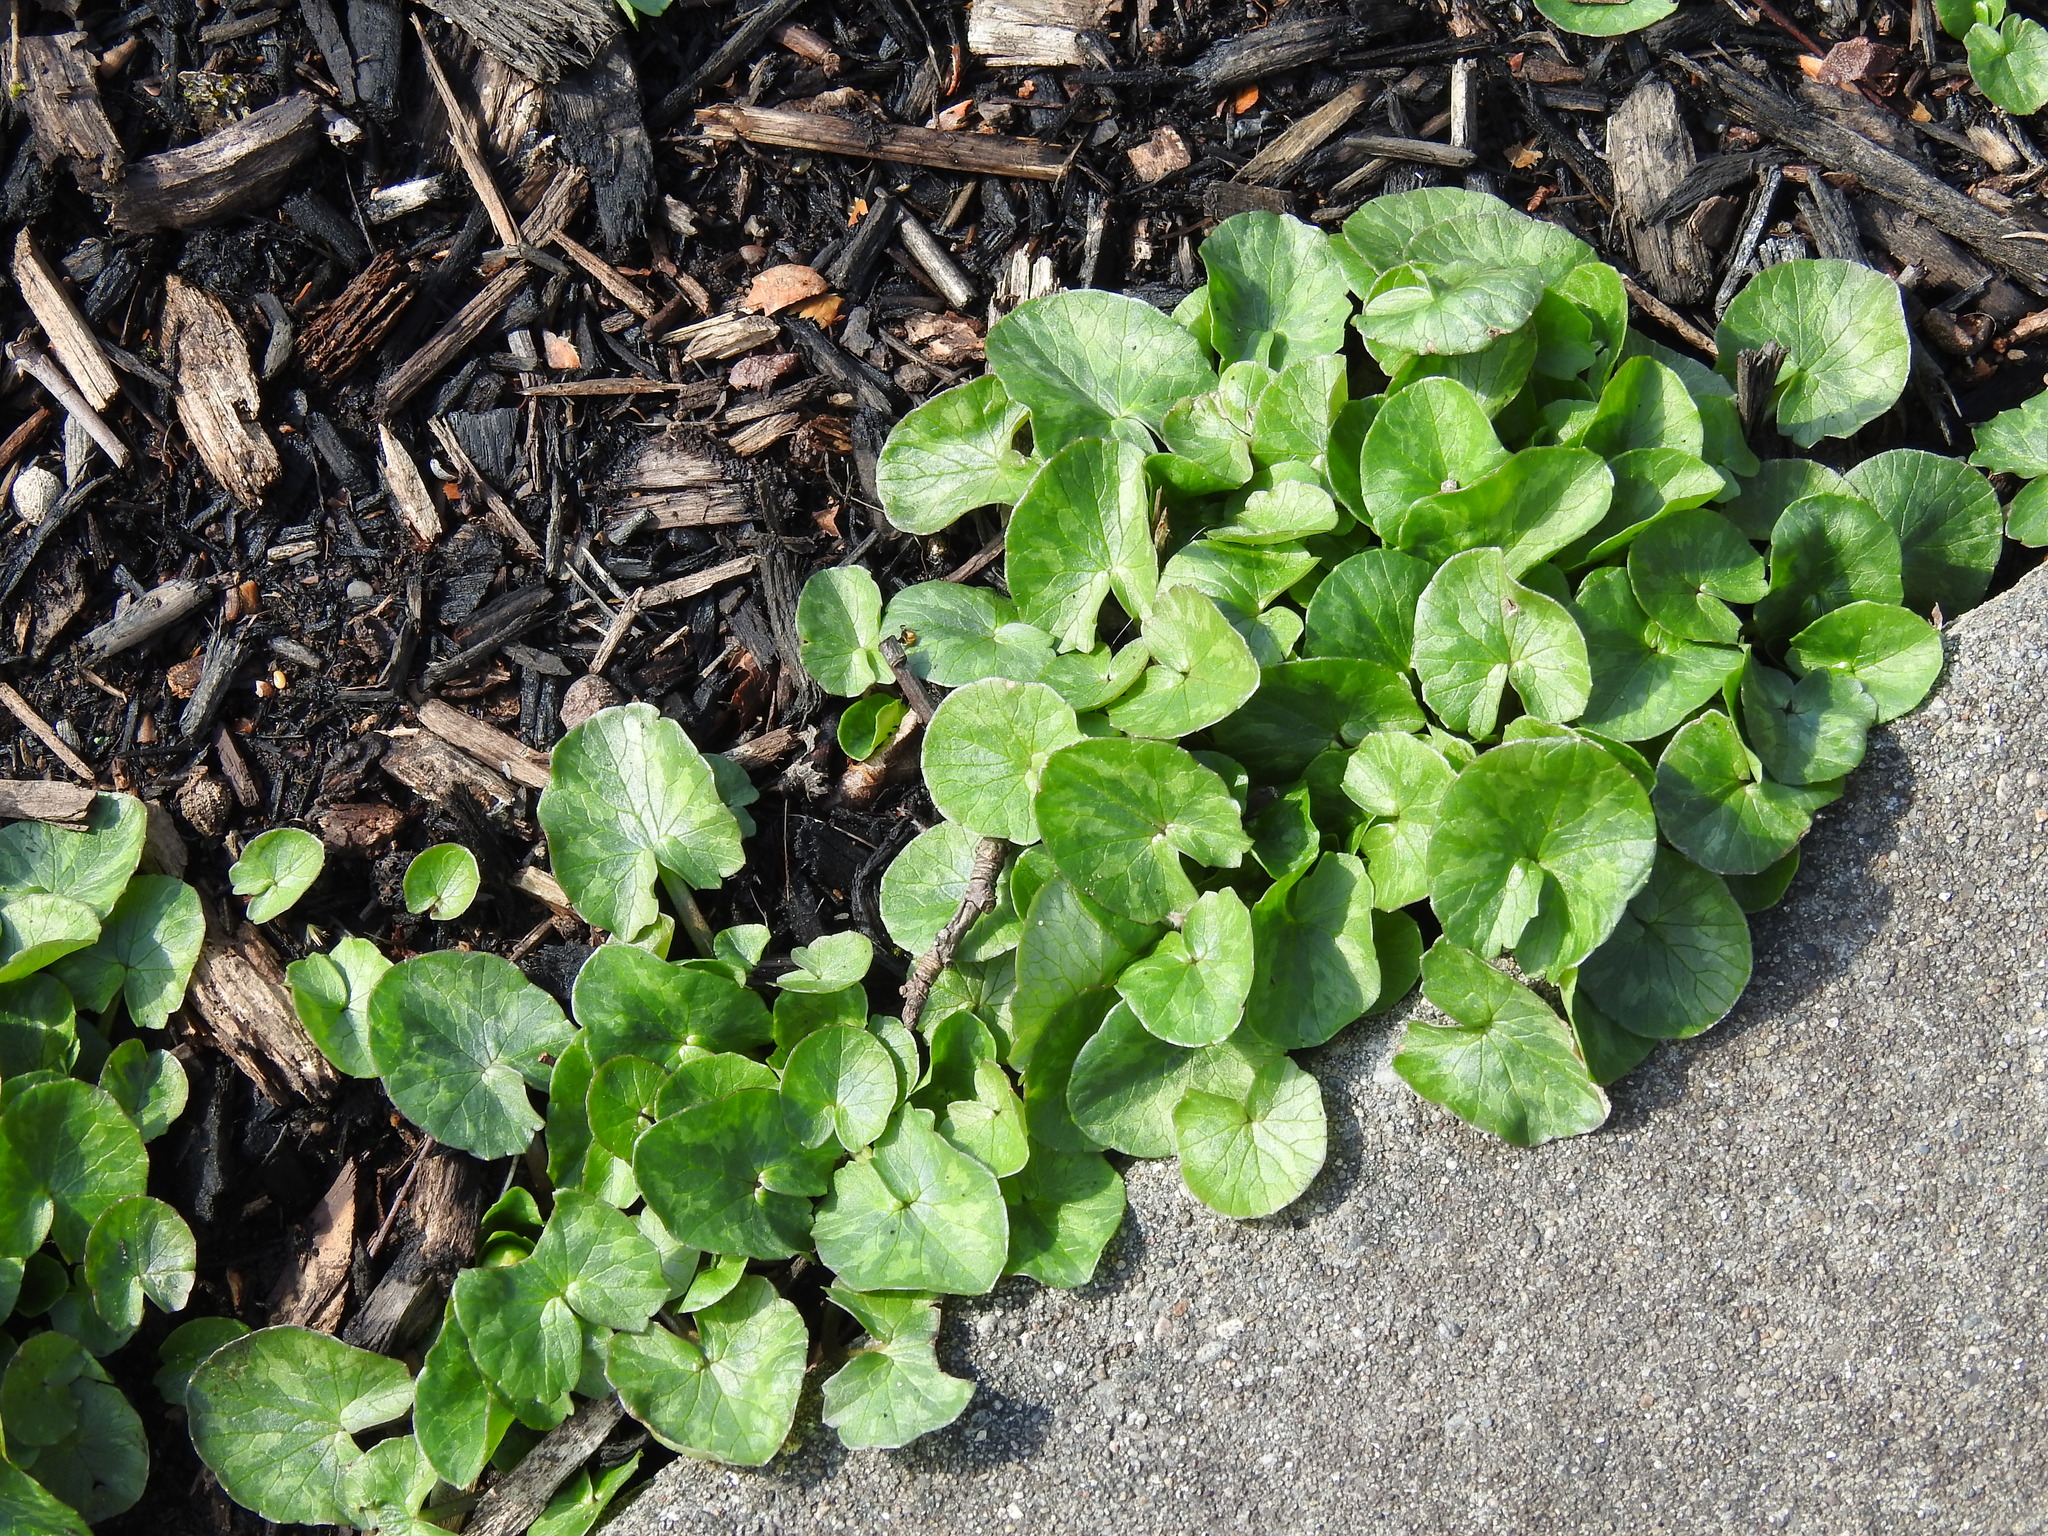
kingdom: Plantae
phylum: Tracheophyta
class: Magnoliopsida
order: Ranunculales
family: Ranunculaceae
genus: Ficaria
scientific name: Ficaria verna
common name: Lesser celandine
